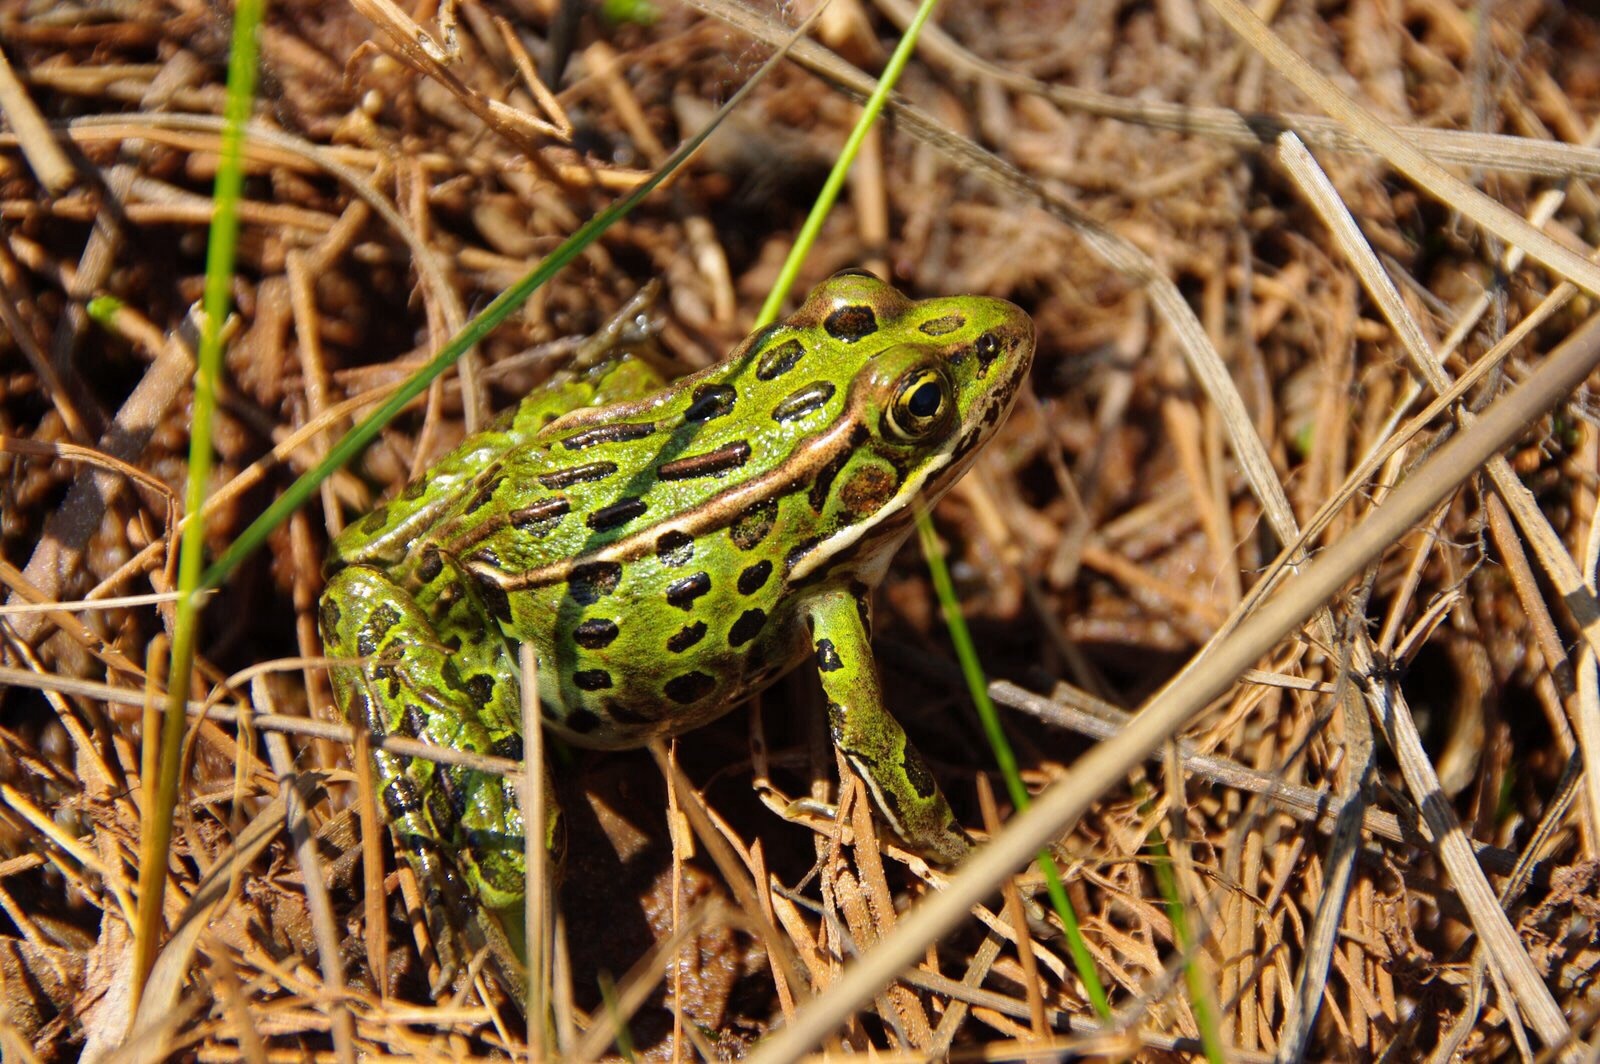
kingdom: Animalia
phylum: Chordata
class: Amphibia
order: Anura
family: Ranidae
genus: Lithobates
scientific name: Lithobates pipiens
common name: Northern leopard frog
